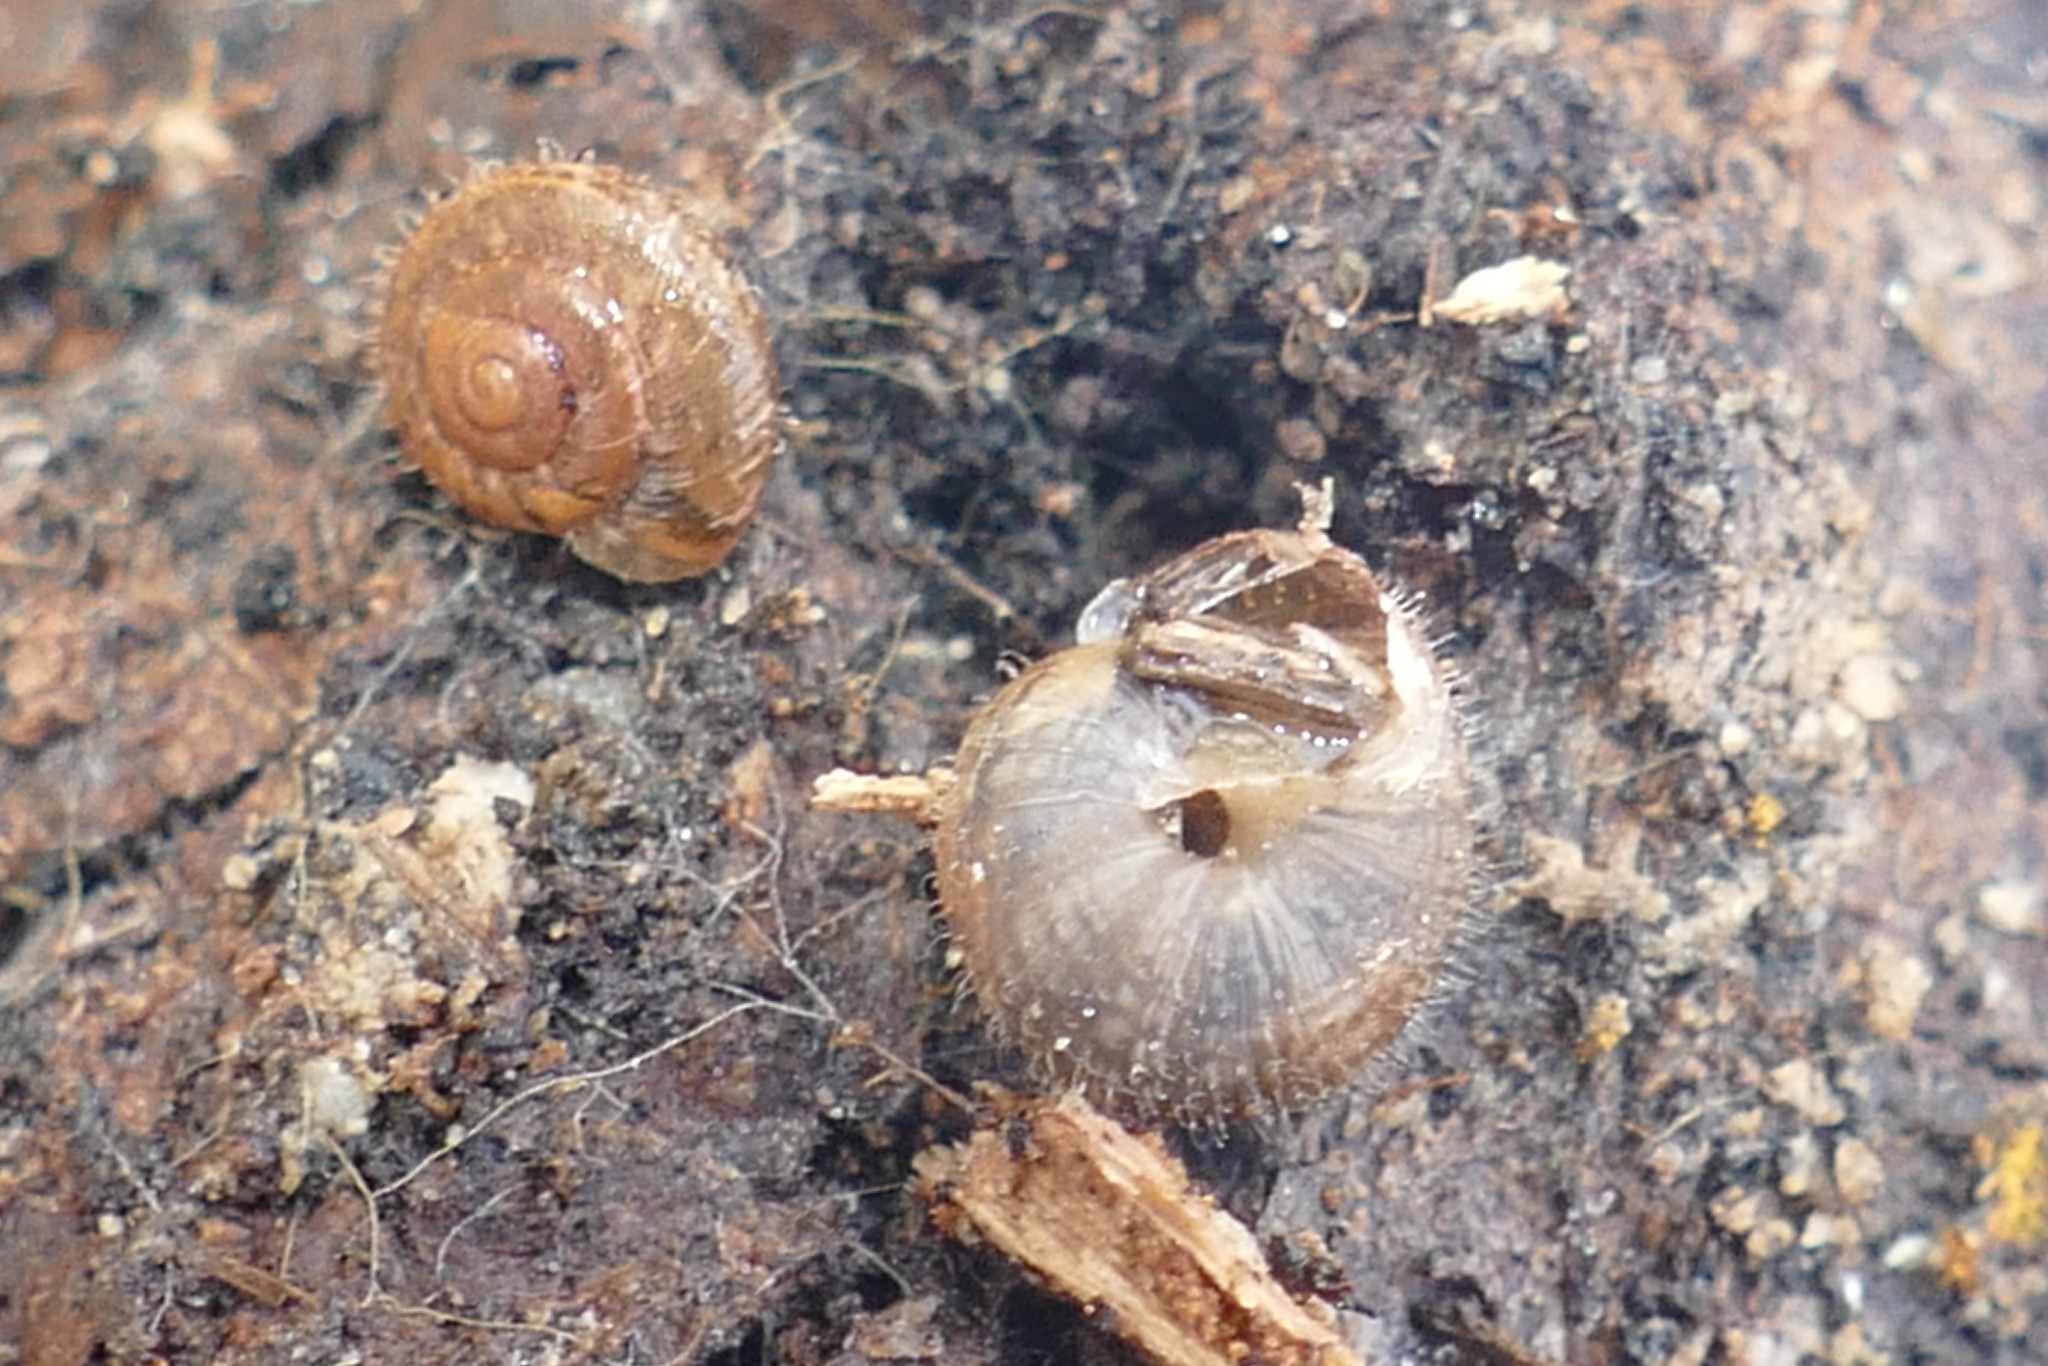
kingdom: Animalia
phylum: Mollusca
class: Gastropoda
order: Stylommatophora
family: Geomitridae
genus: Xerotricha
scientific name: Xerotricha conspurcata
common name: Snail
